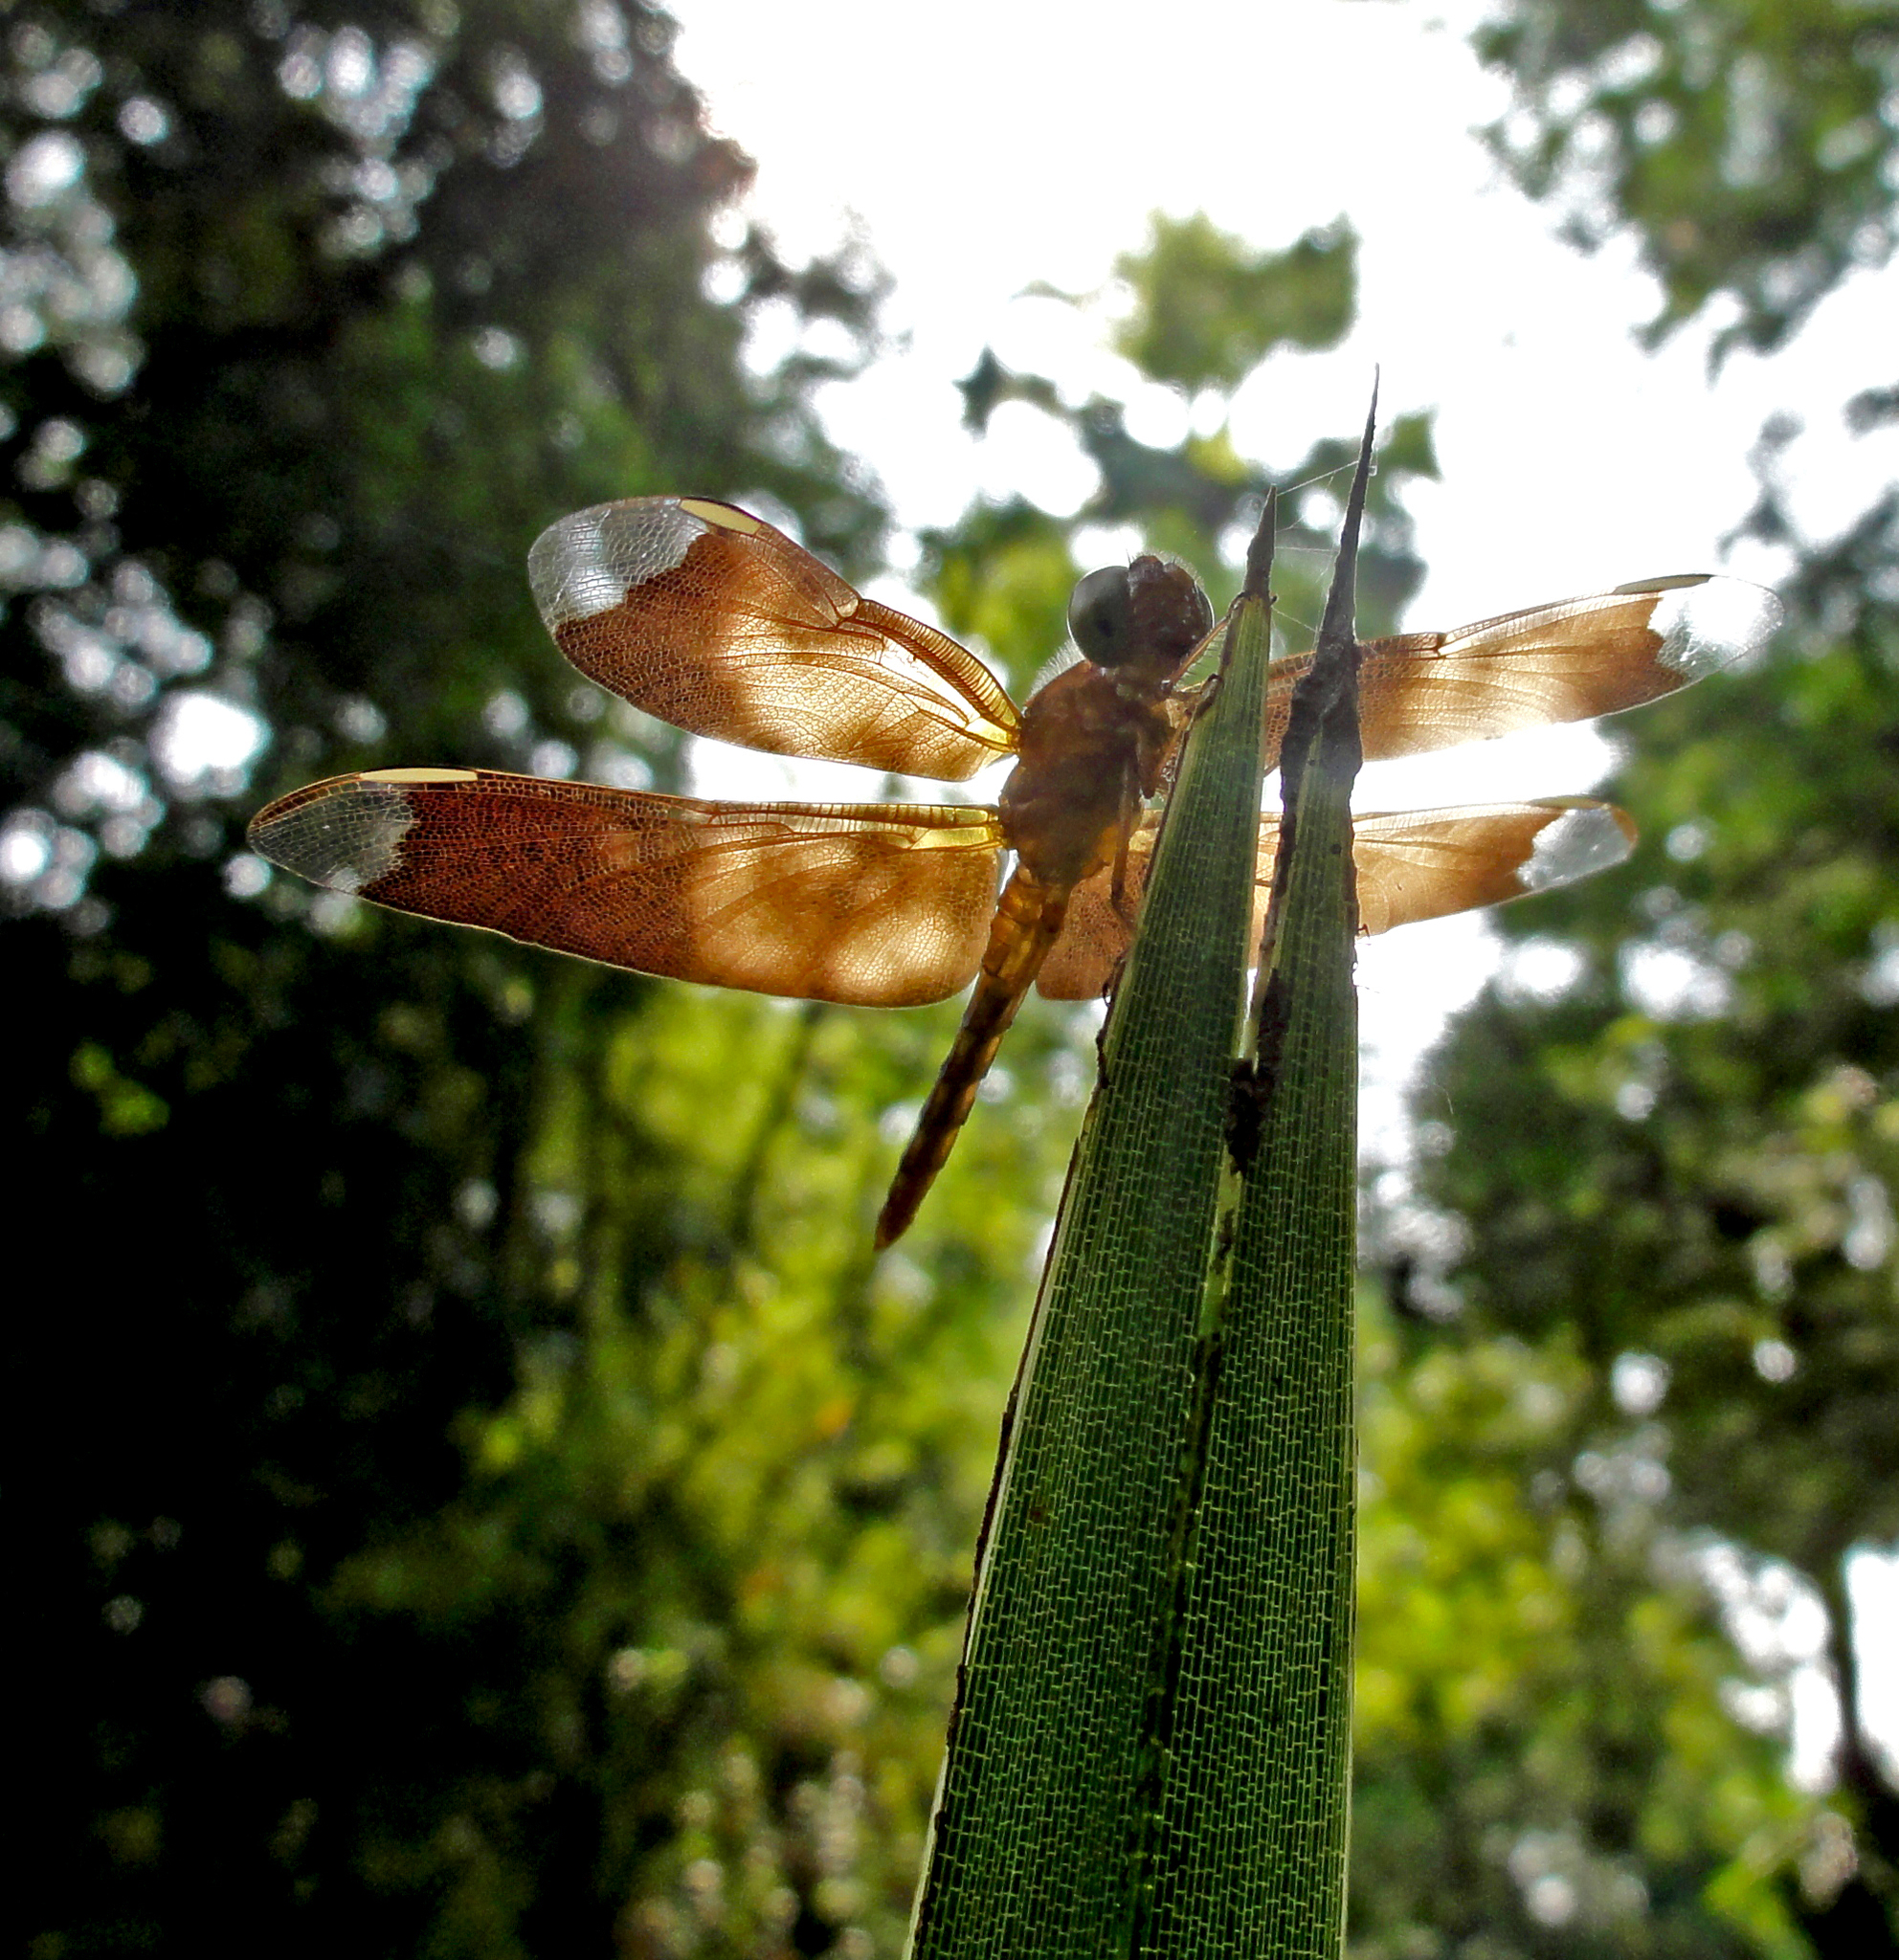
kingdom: Animalia
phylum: Arthropoda
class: Insecta
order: Odonata
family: Libellulidae
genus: Neurothemis
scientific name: Neurothemis fulvia
